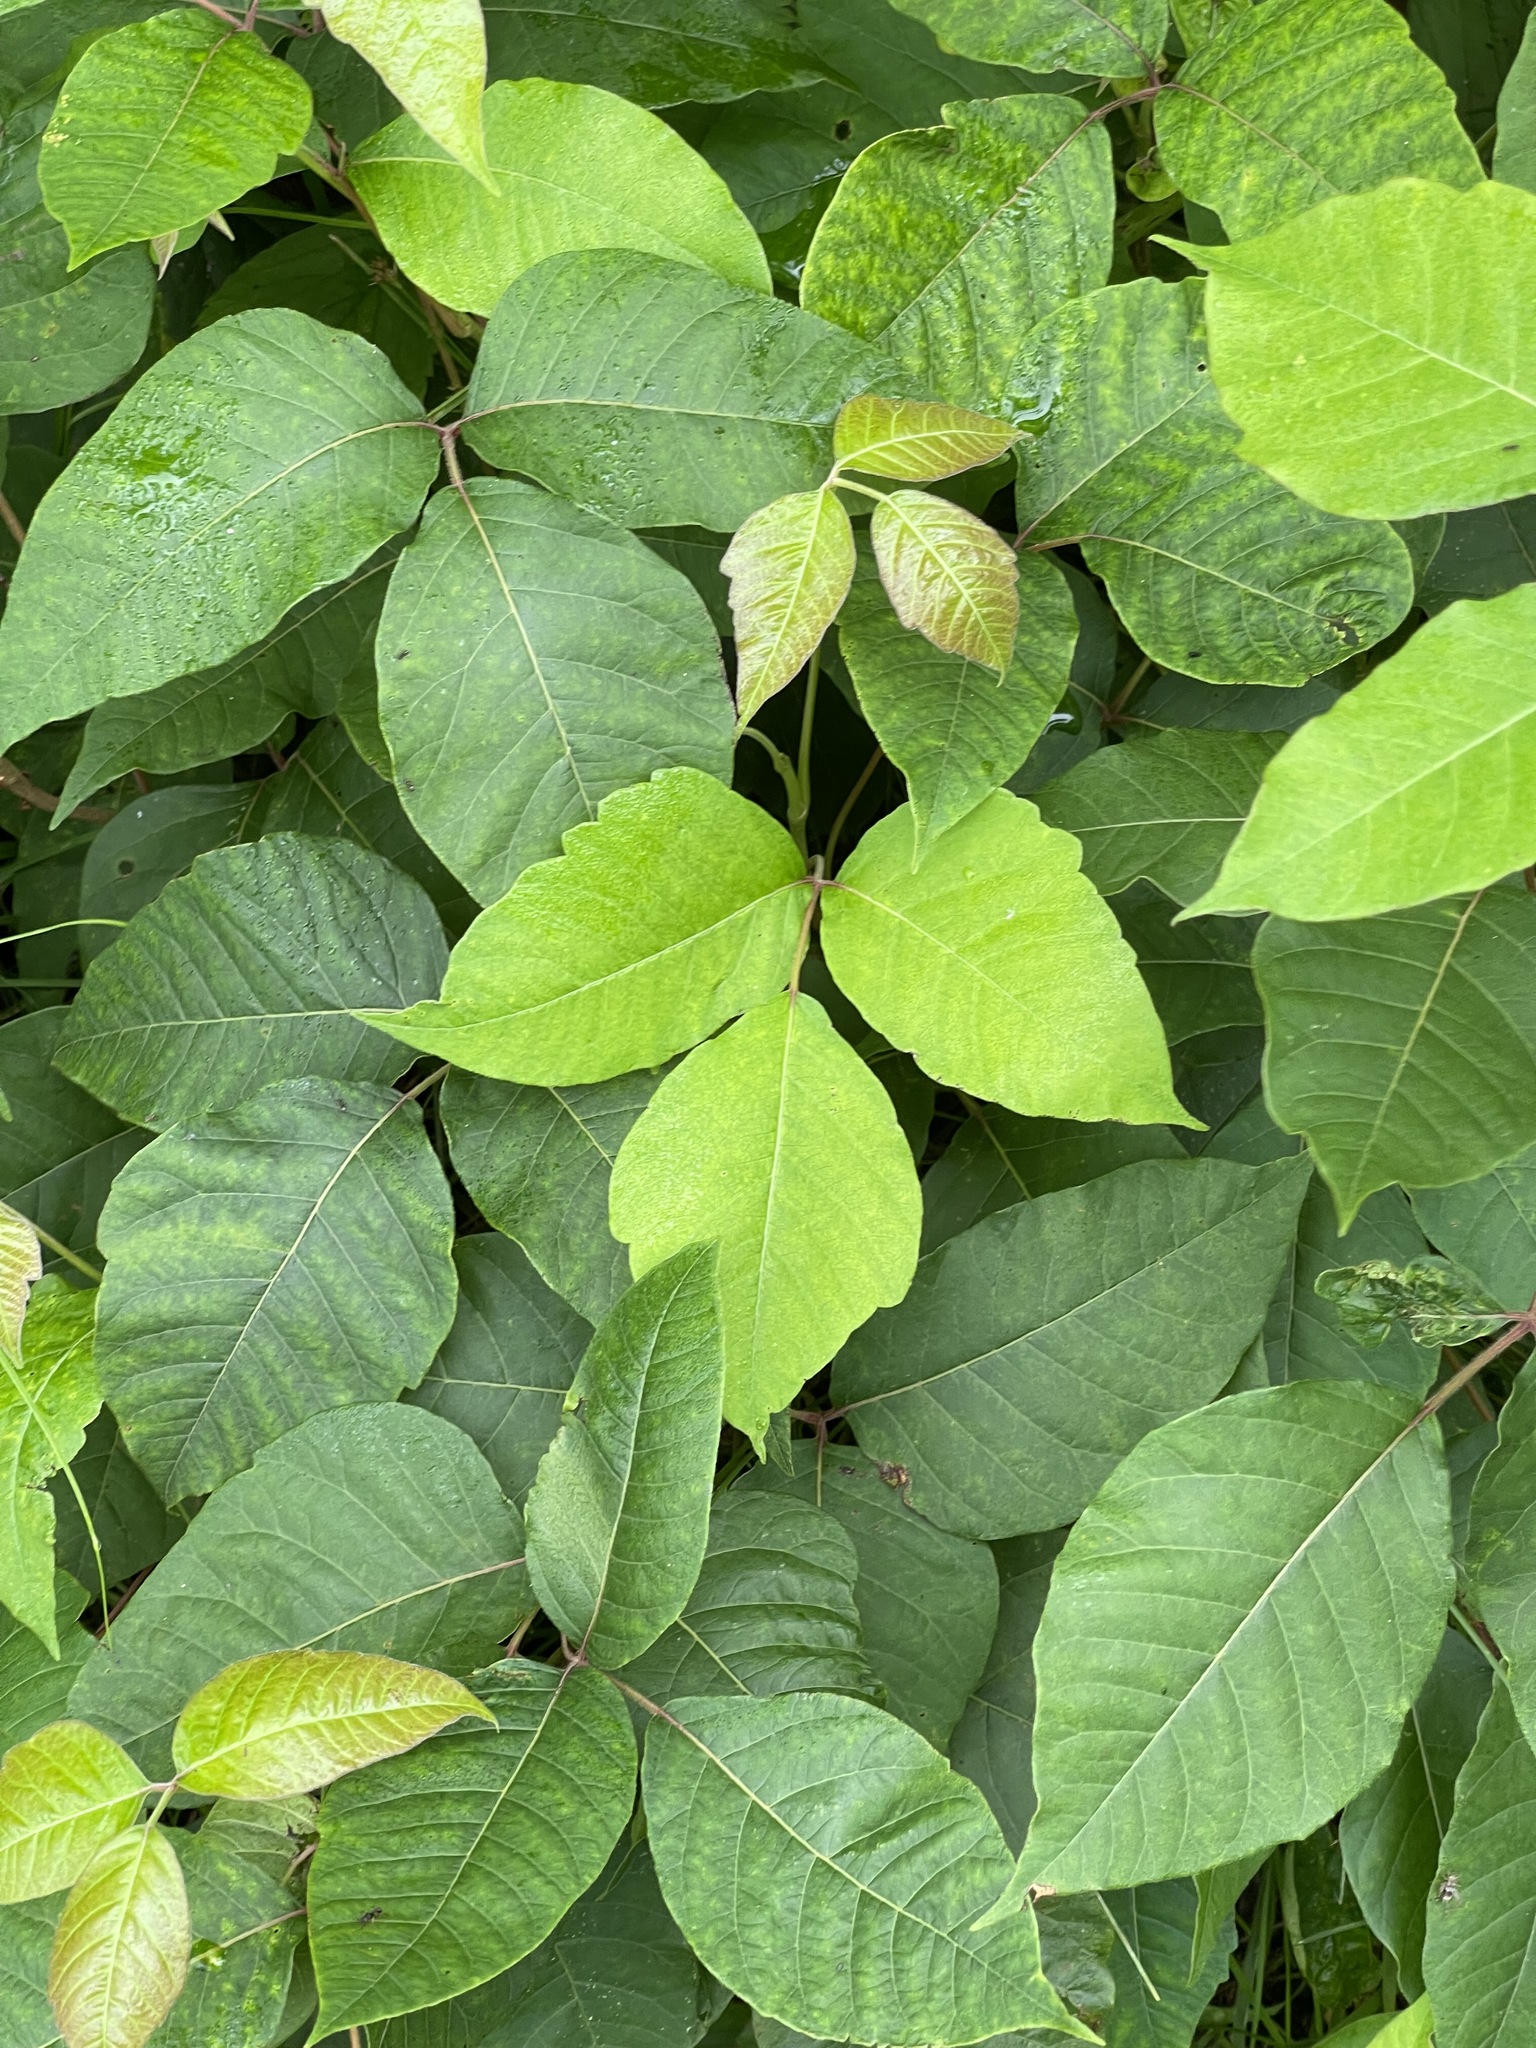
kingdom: Plantae
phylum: Tracheophyta
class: Magnoliopsida
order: Sapindales
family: Anacardiaceae
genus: Toxicodendron
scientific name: Toxicodendron radicans
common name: Poison ivy
